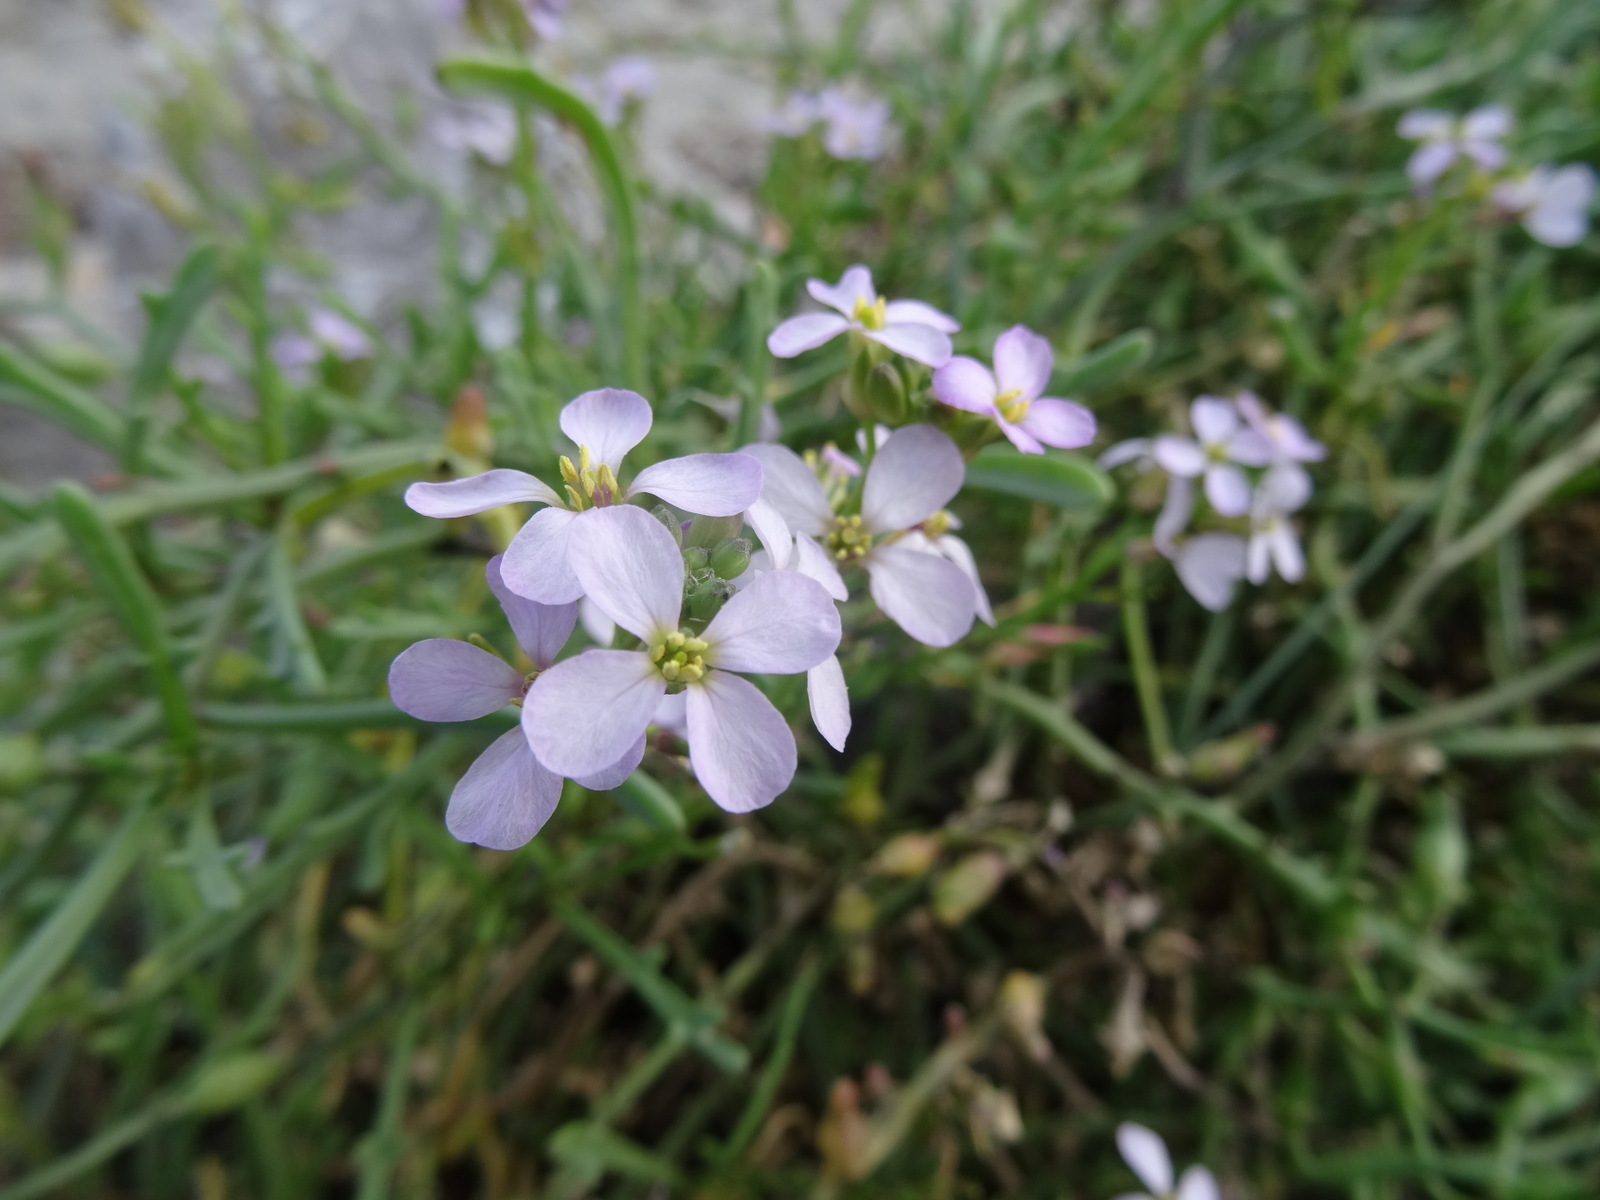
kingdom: Plantae
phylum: Tracheophyta
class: Magnoliopsida
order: Brassicales
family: Brassicaceae
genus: Cakile
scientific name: Cakile maritima
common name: Sea rocket
